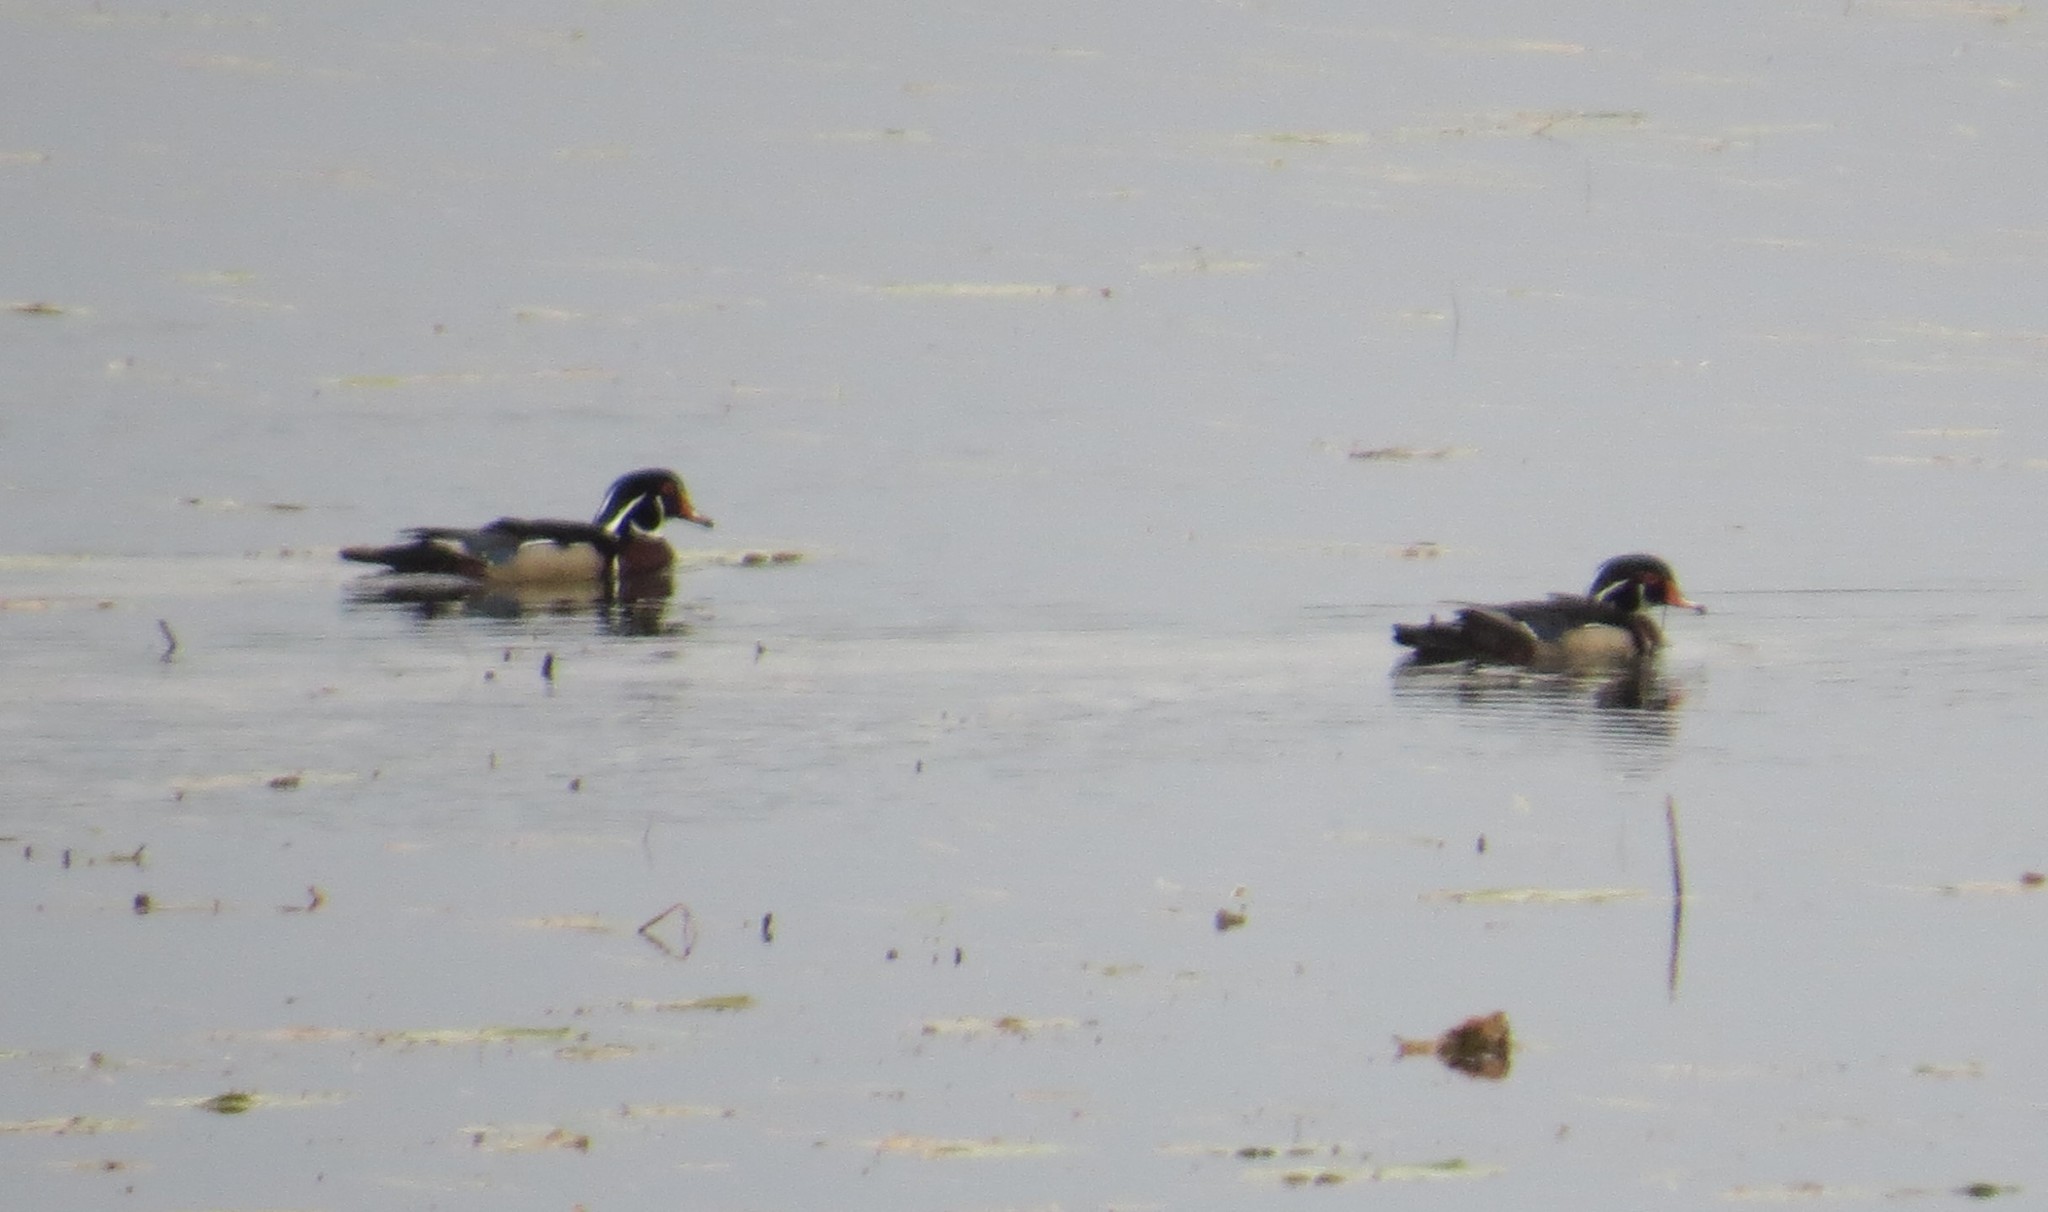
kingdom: Animalia
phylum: Chordata
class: Aves
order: Anseriformes
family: Anatidae
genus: Aix
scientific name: Aix sponsa
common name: Wood duck
